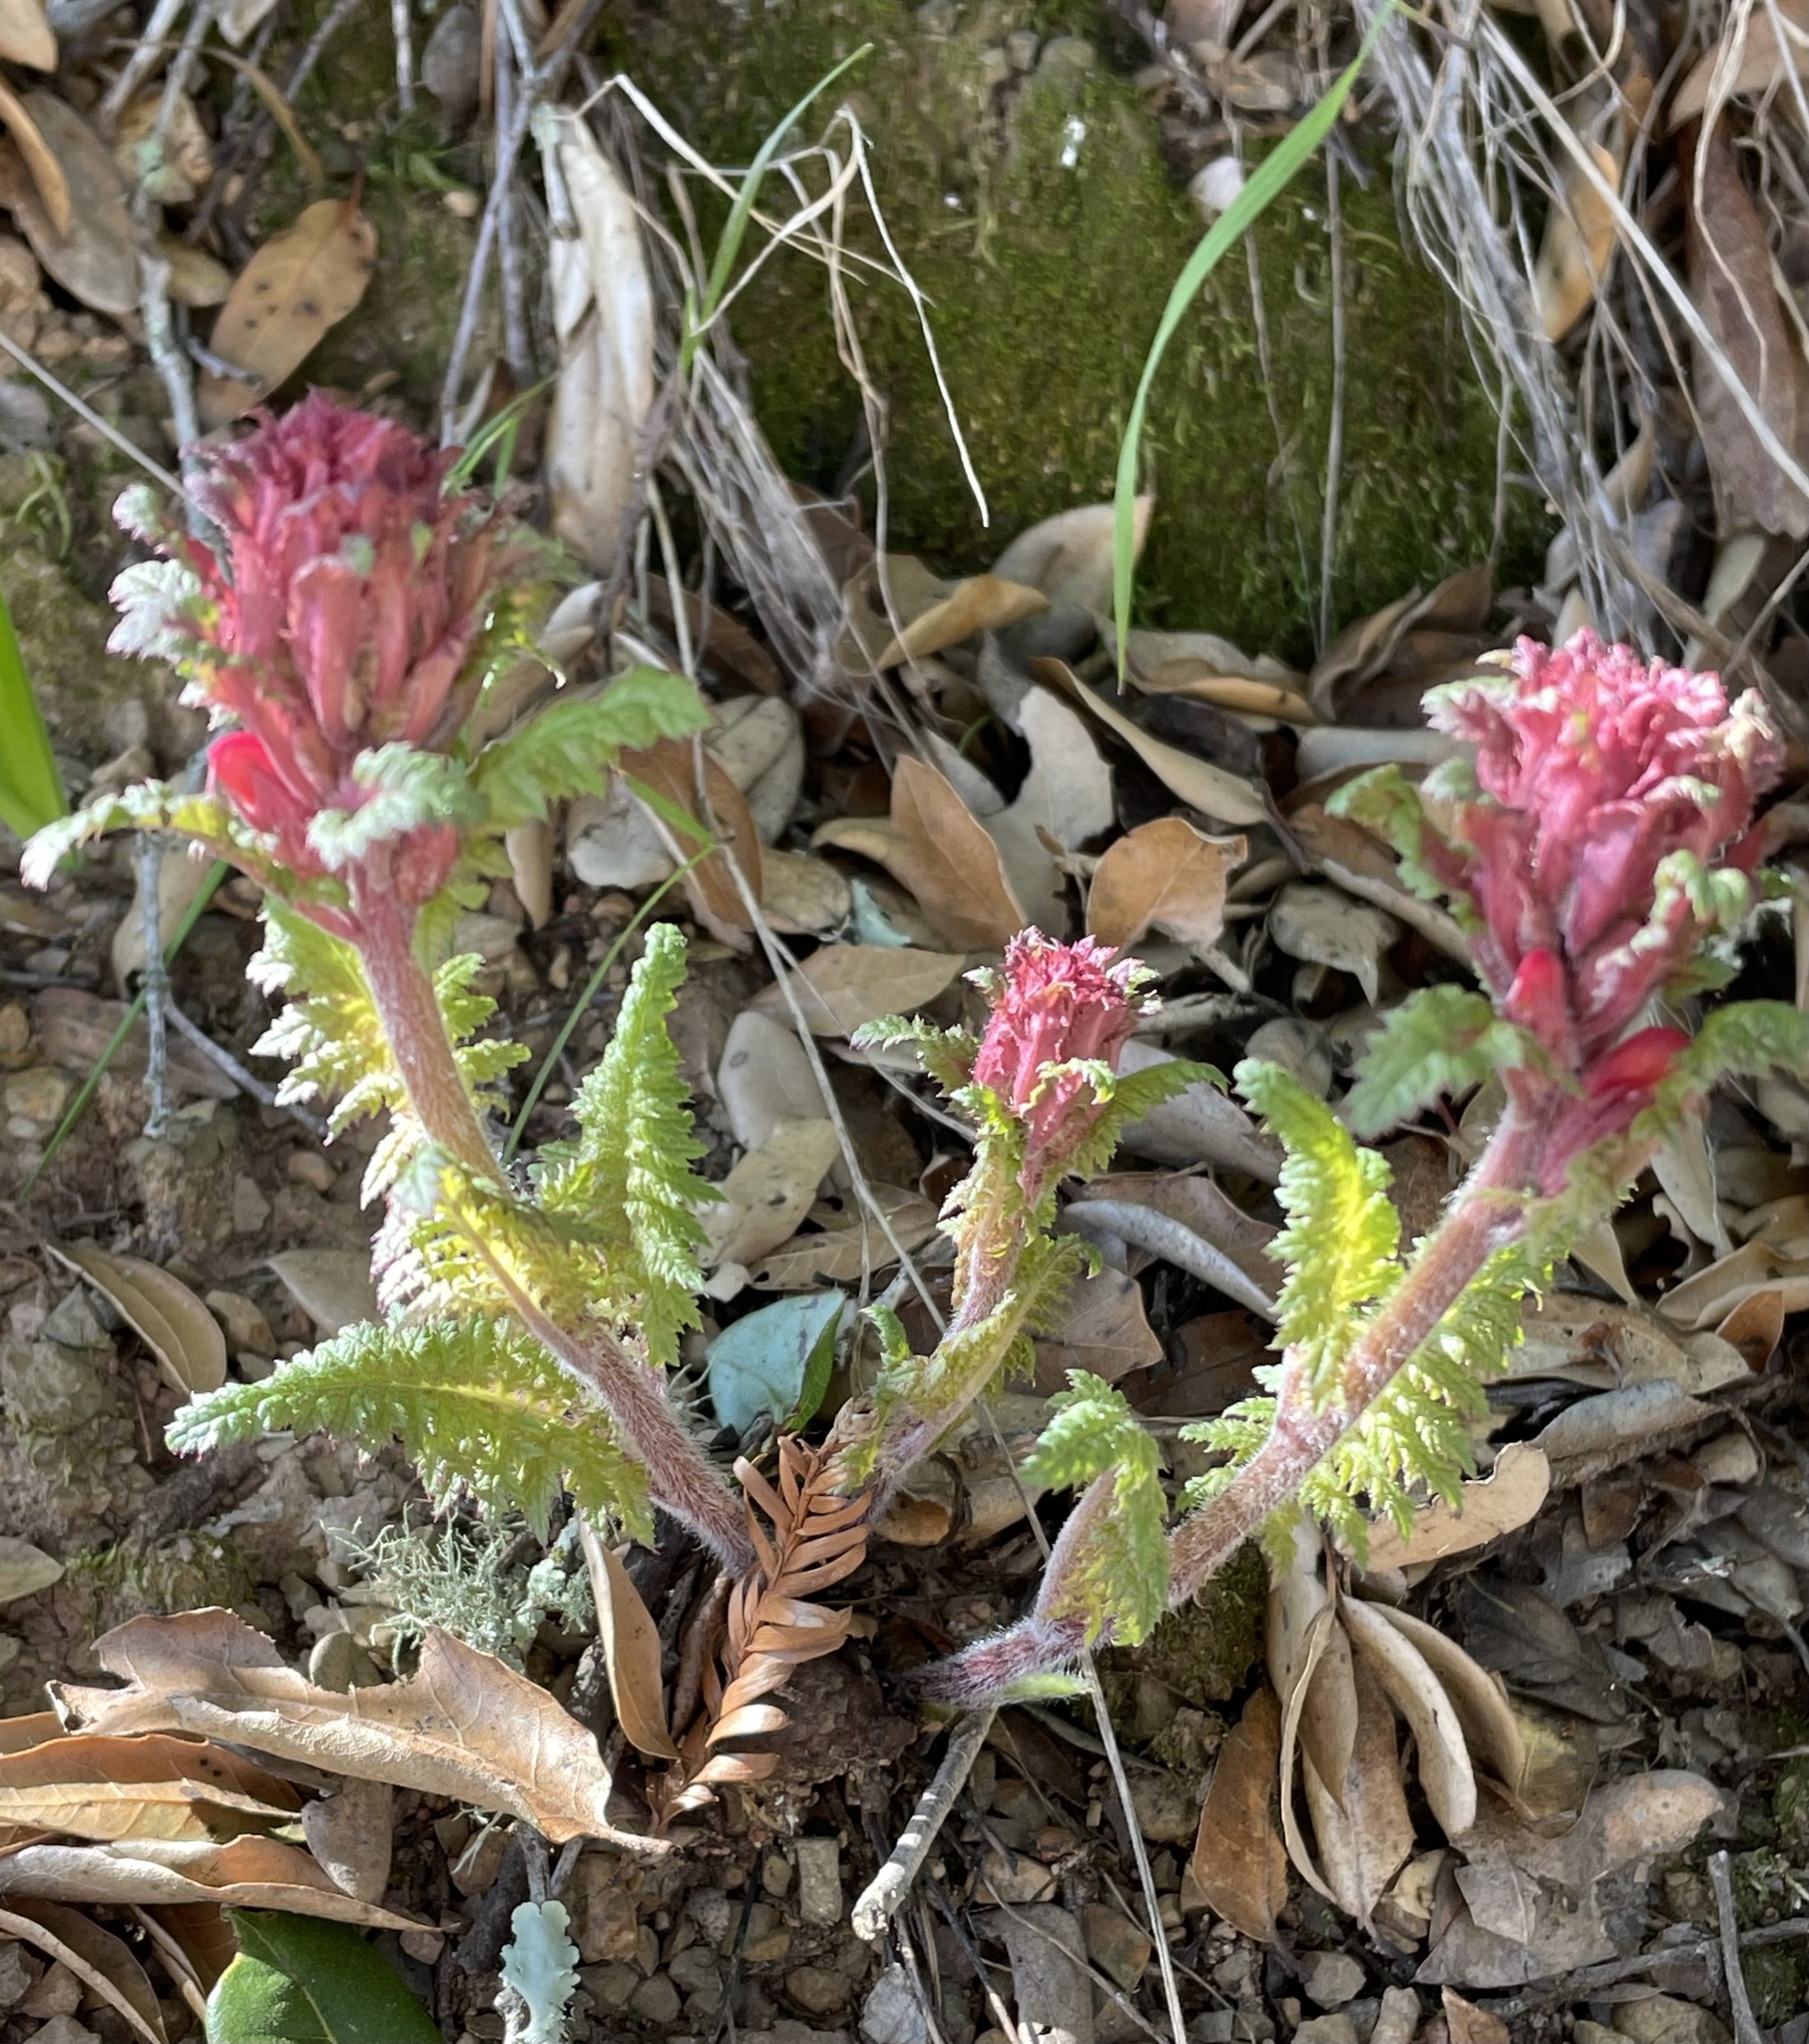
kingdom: Plantae
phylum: Tracheophyta
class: Magnoliopsida
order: Lamiales
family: Orobanchaceae
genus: Pedicularis
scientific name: Pedicularis densiflora
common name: Indian warrior
